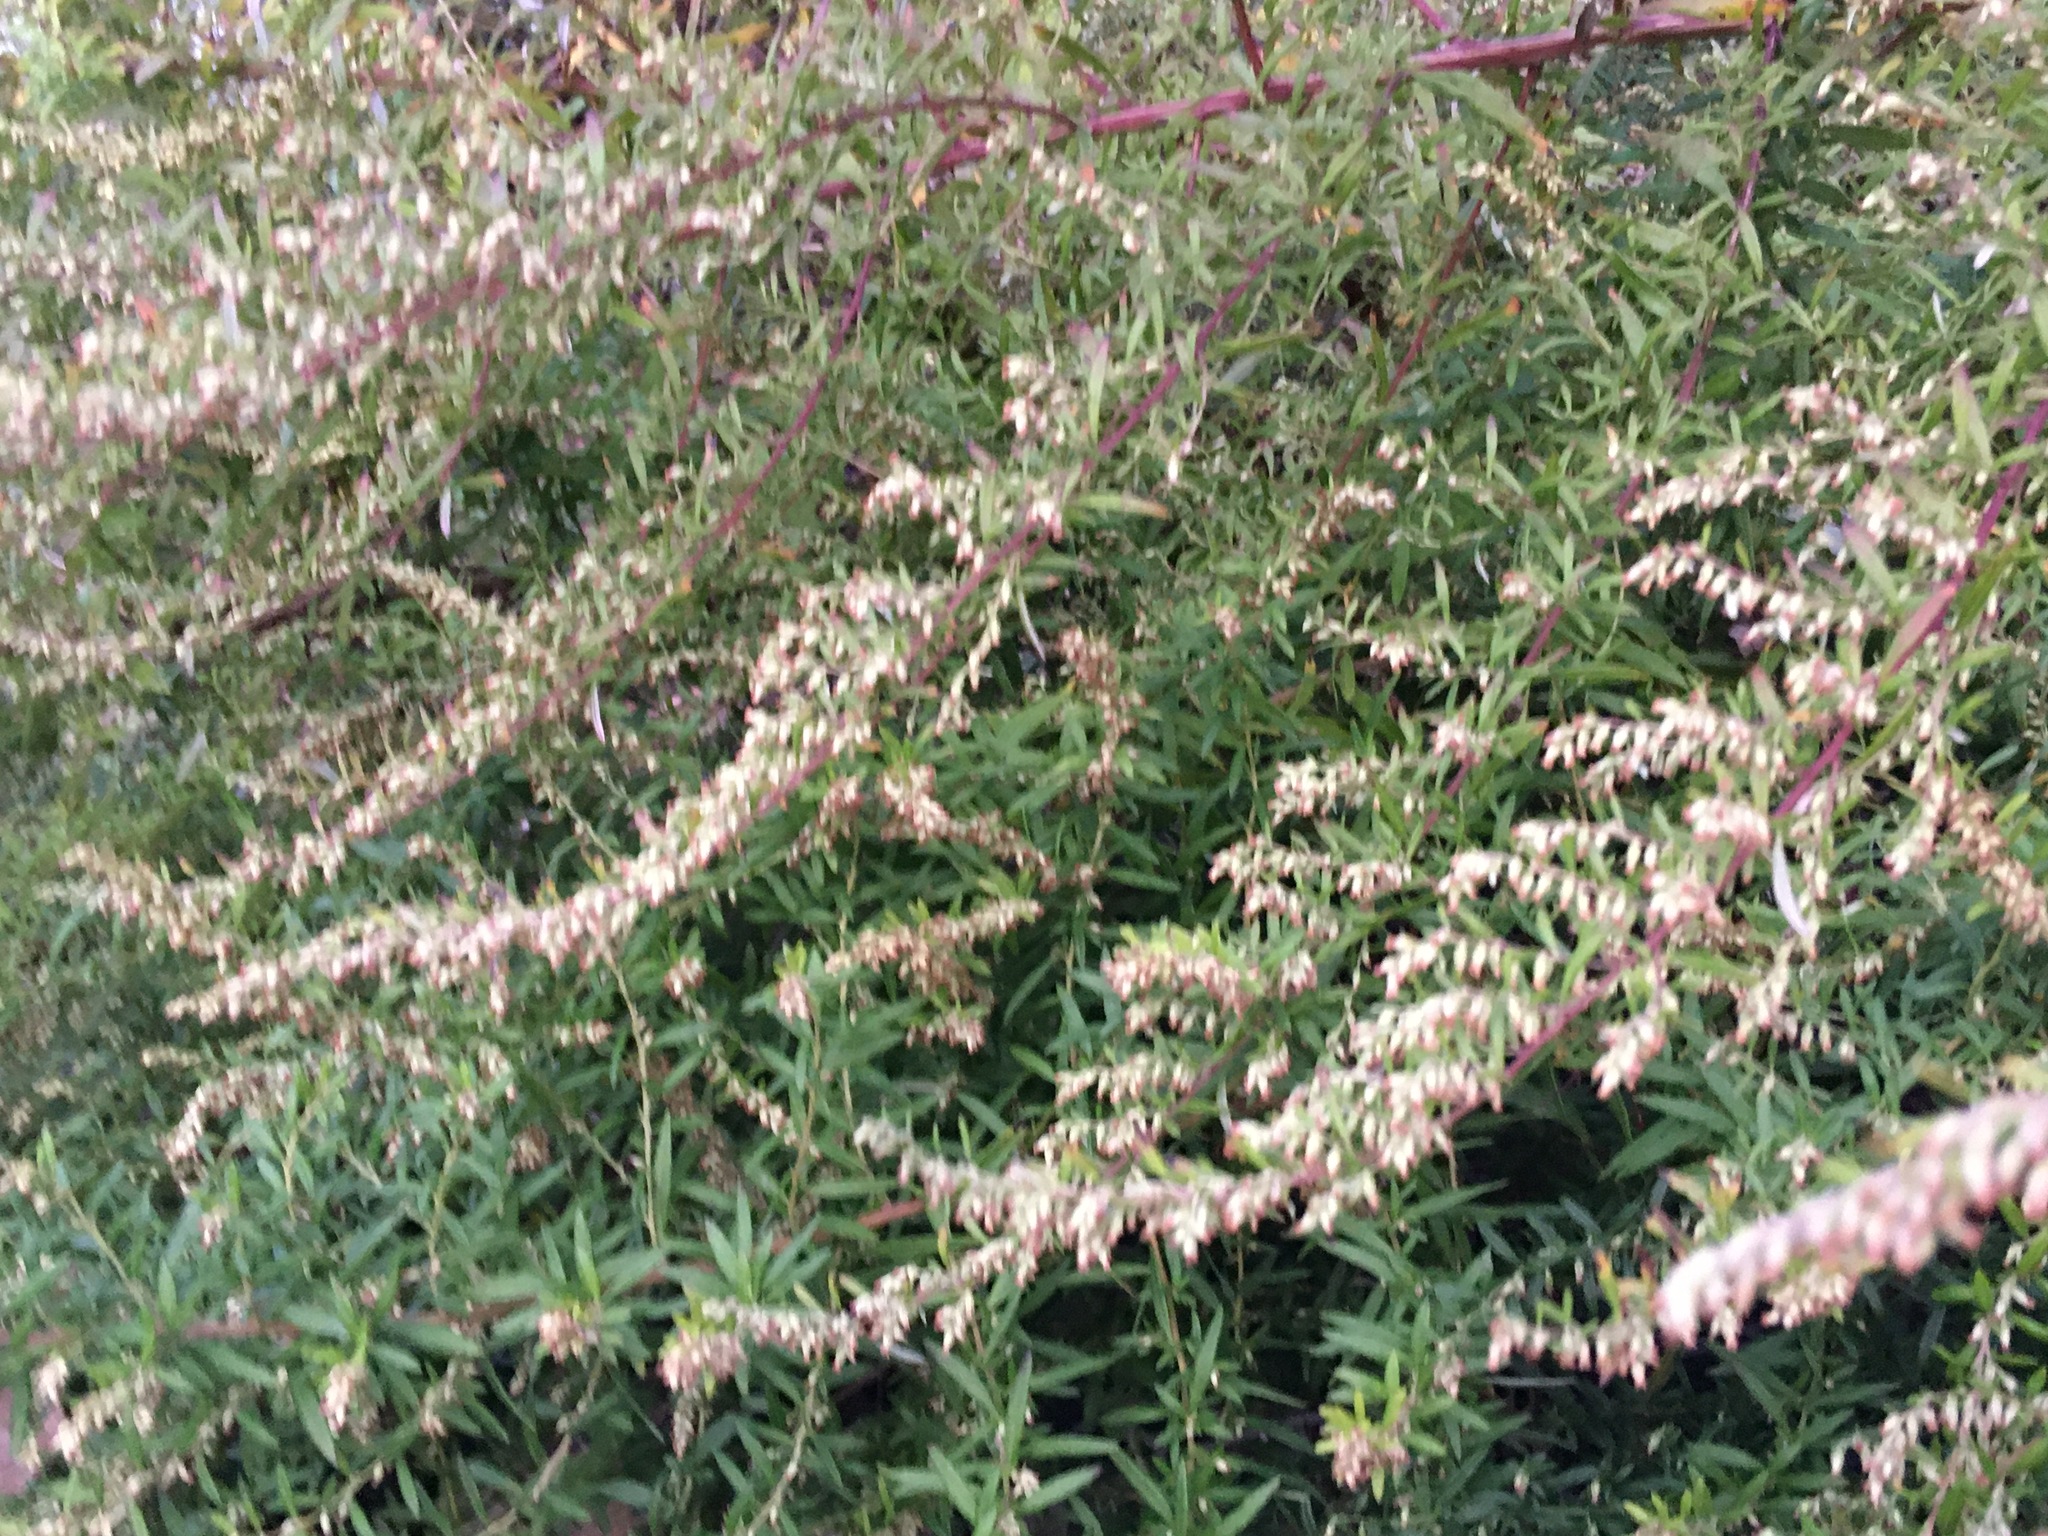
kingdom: Plantae
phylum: Tracheophyta
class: Magnoliopsida
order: Asterales
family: Asteraceae
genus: Artemisia
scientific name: Artemisia vulgaris
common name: Mugwort
